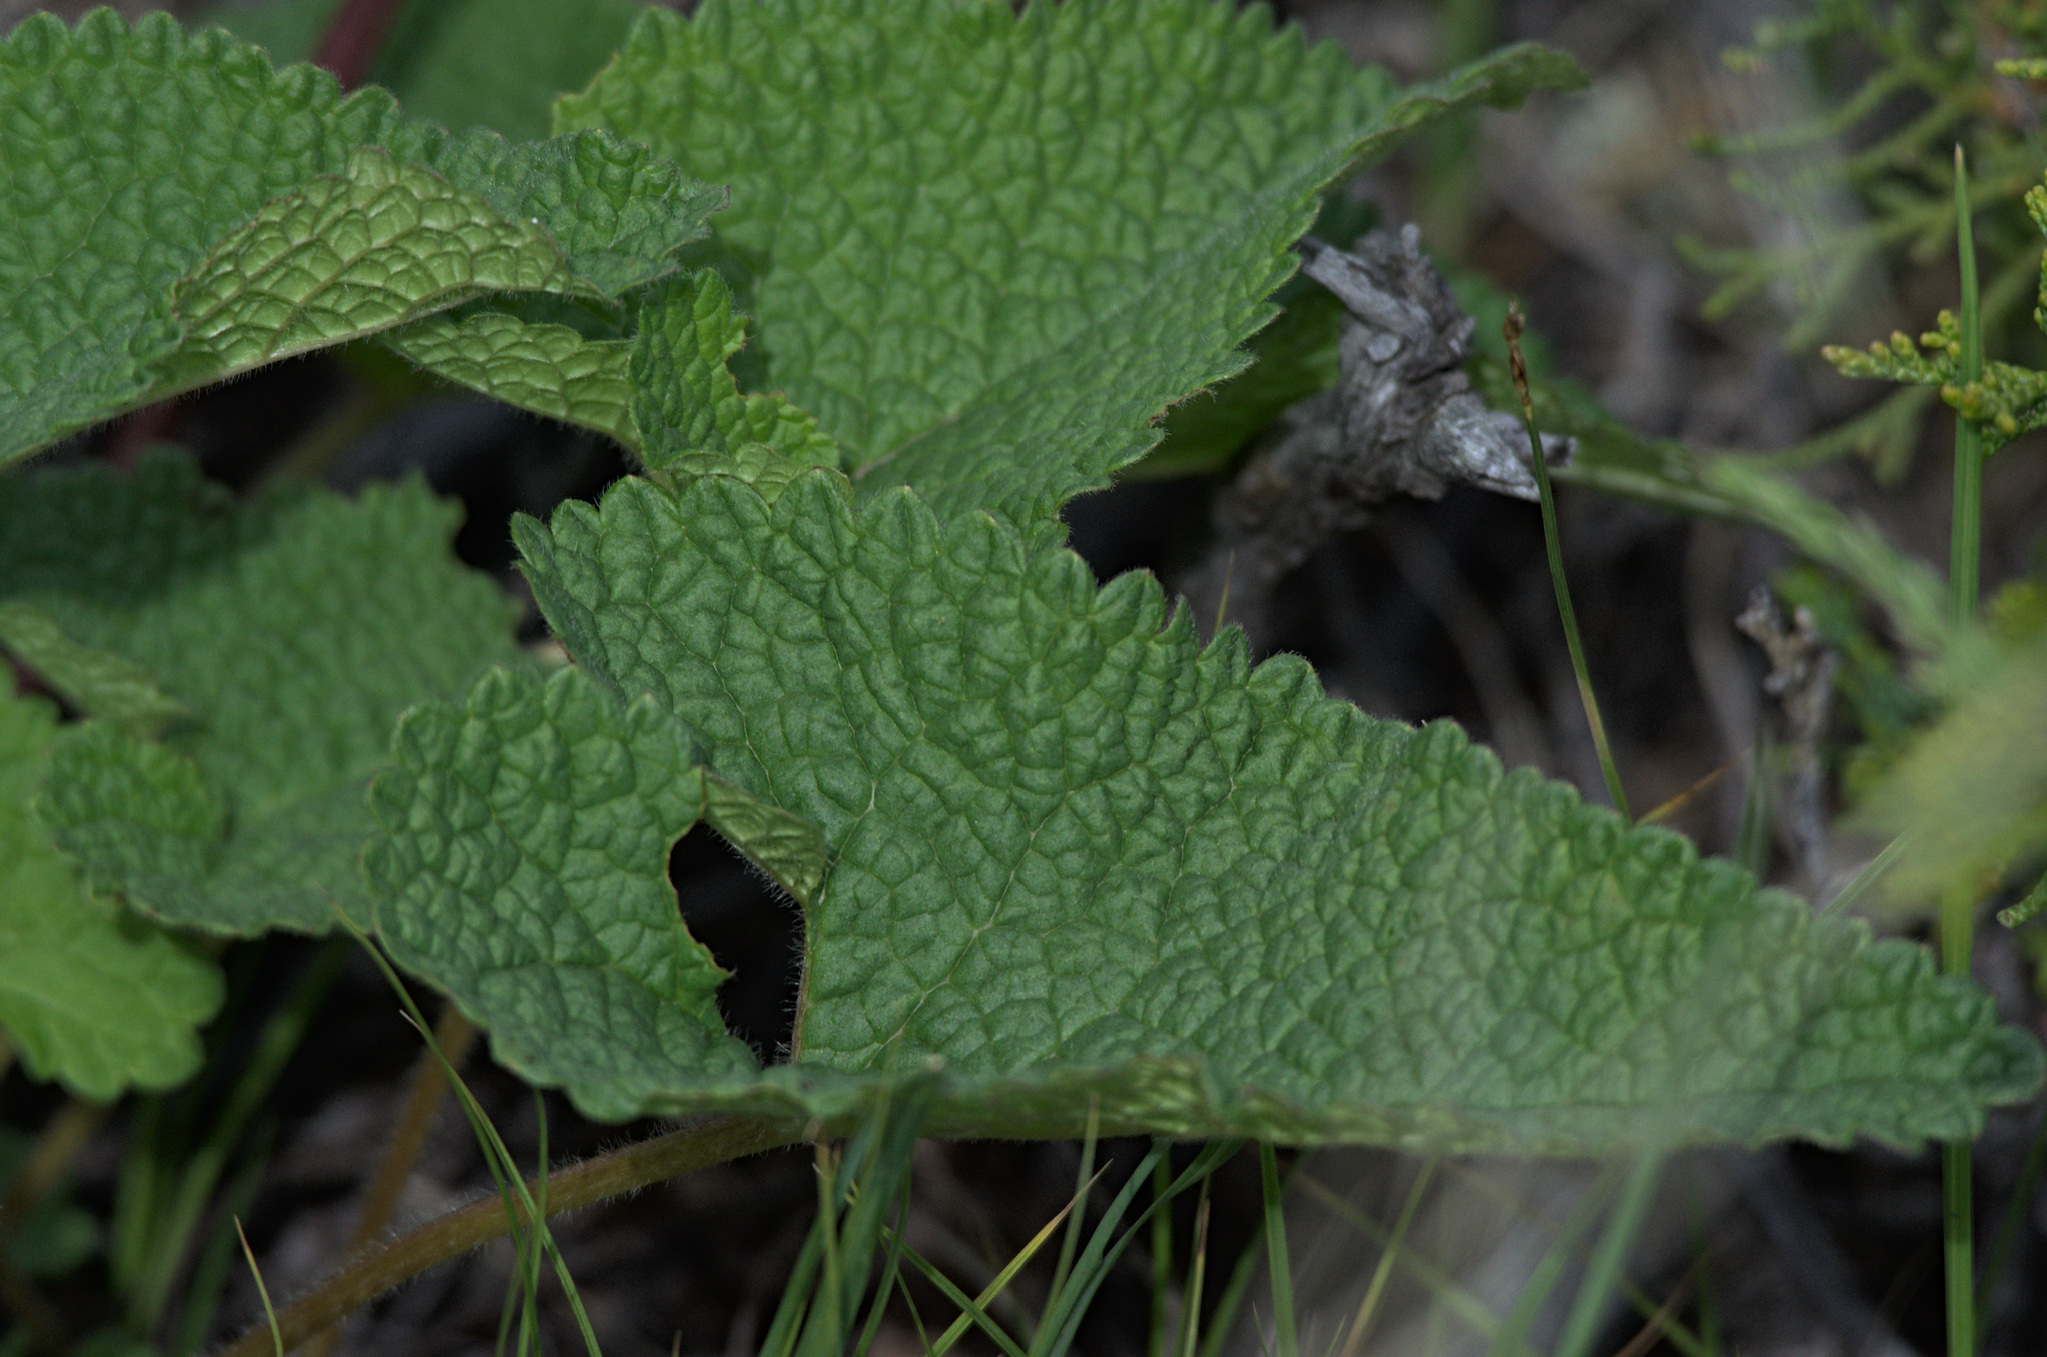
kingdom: Plantae
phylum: Tracheophyta
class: Magnoliopsida
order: Lamiales
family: Lamiaceae
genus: Phlomoides
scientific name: Phlomoides tuberosa
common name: Tuberous jerusalem sage
